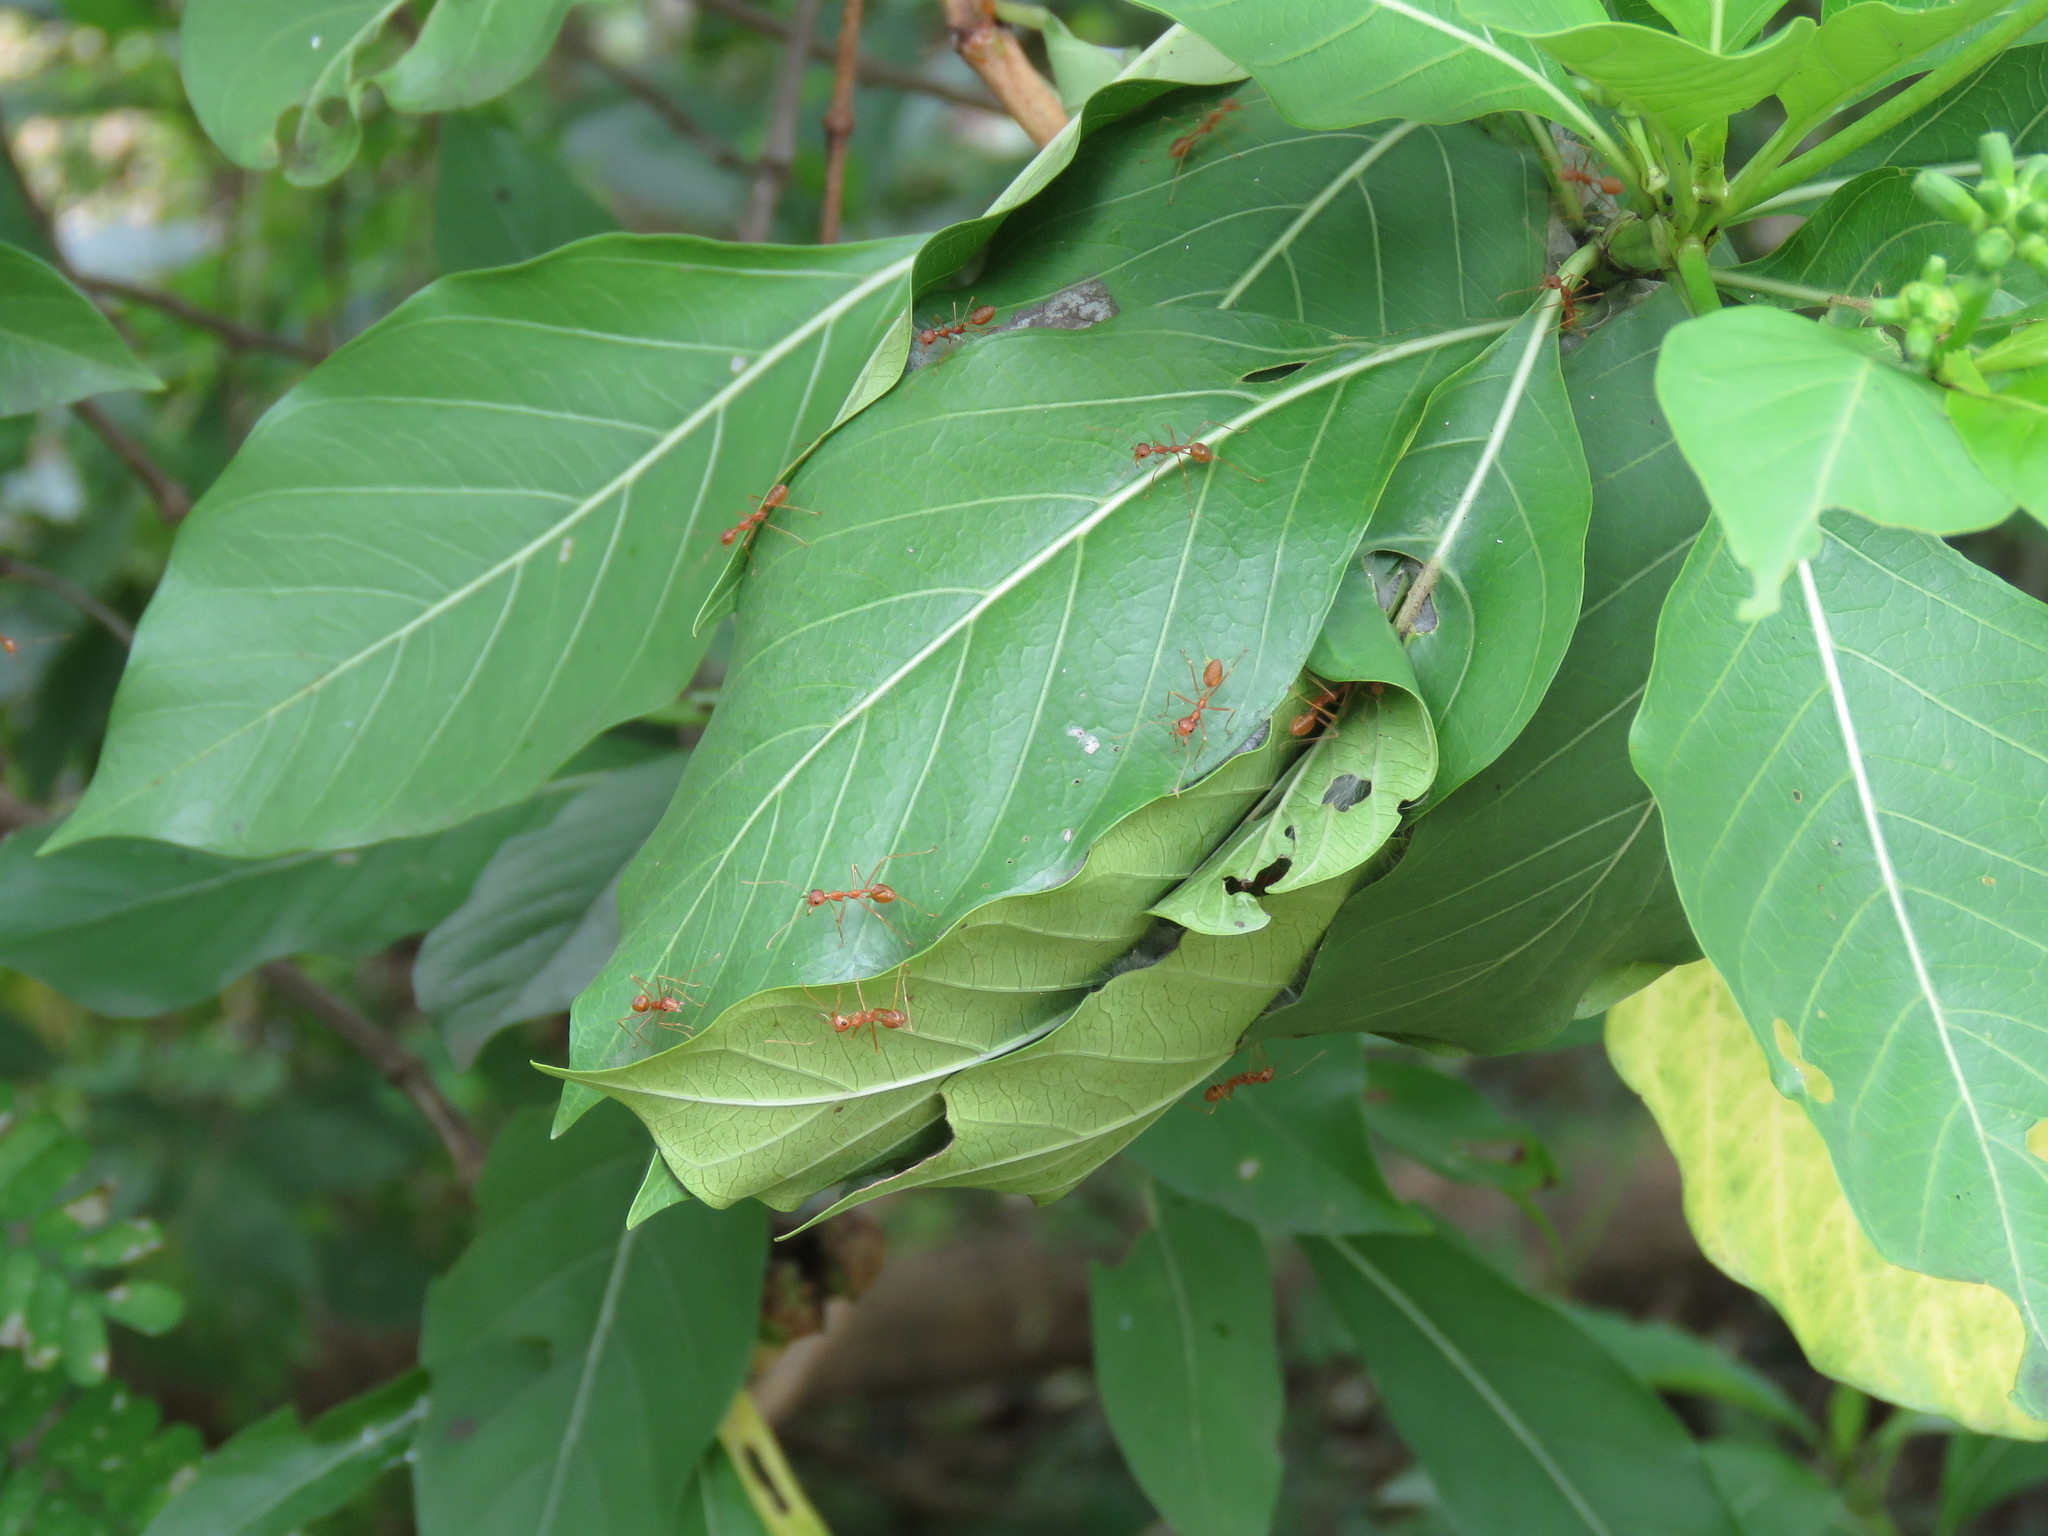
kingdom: Animalia
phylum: Arthropoda
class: Insecta
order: Hymenoptera
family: Formicidae
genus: Oecophylla
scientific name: Oecophylla smaragdina
